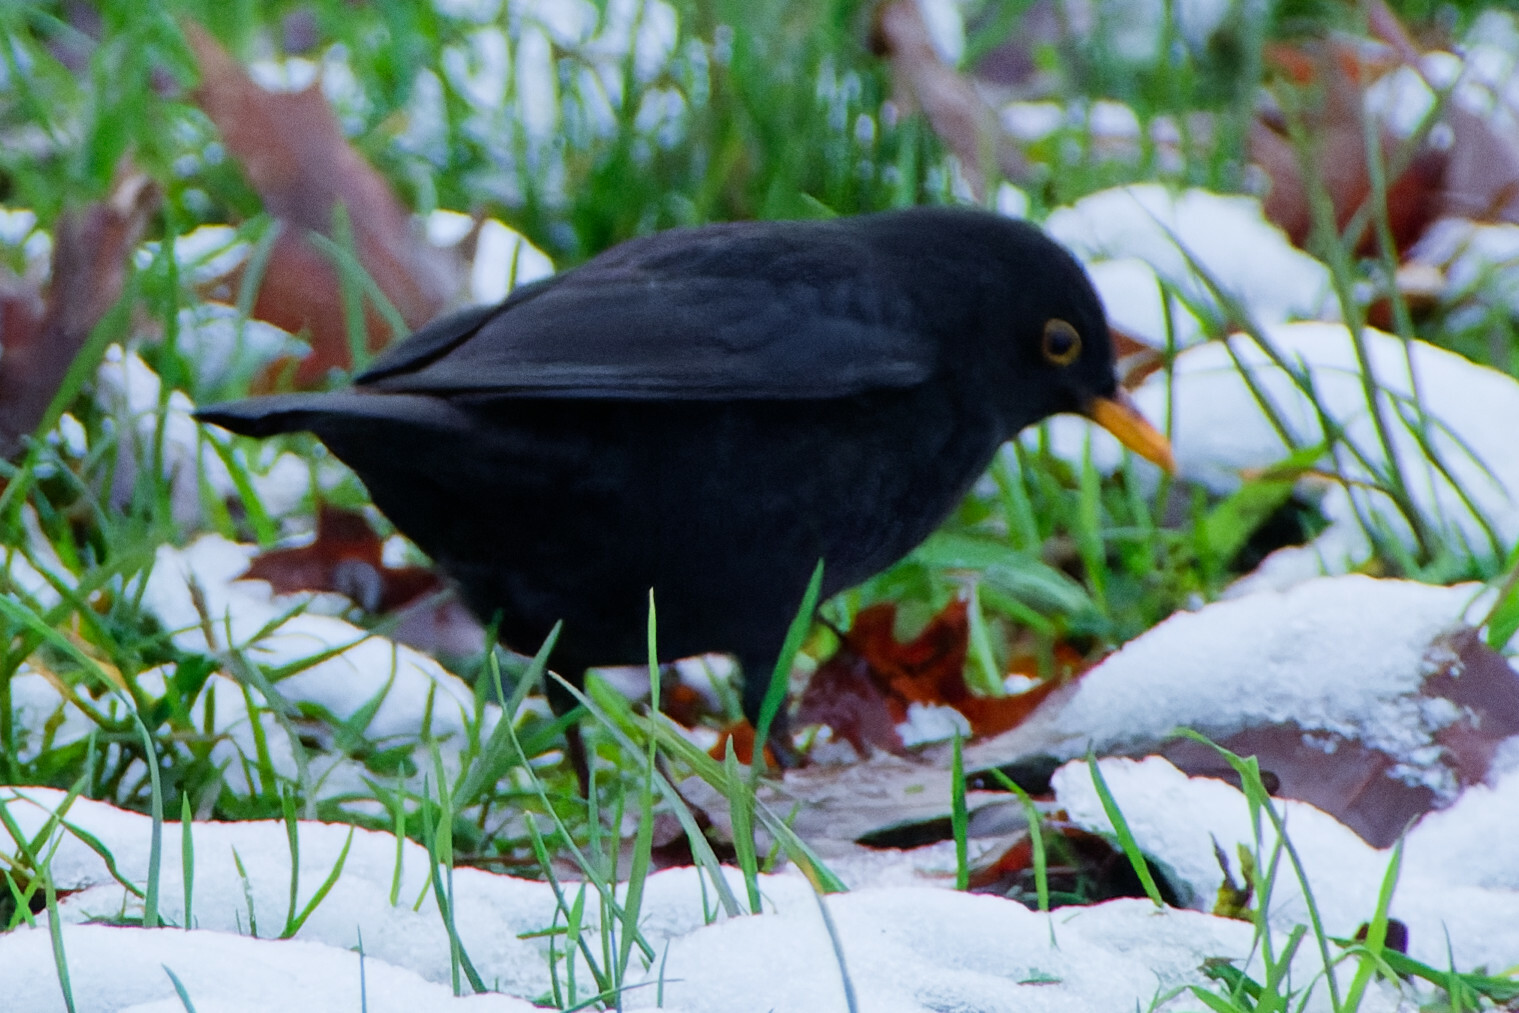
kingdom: Animalia
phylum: Chordata
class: Aves
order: Passeriformes
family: Turdidae
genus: Turdus
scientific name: Turdus merula
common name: Common blackbird
